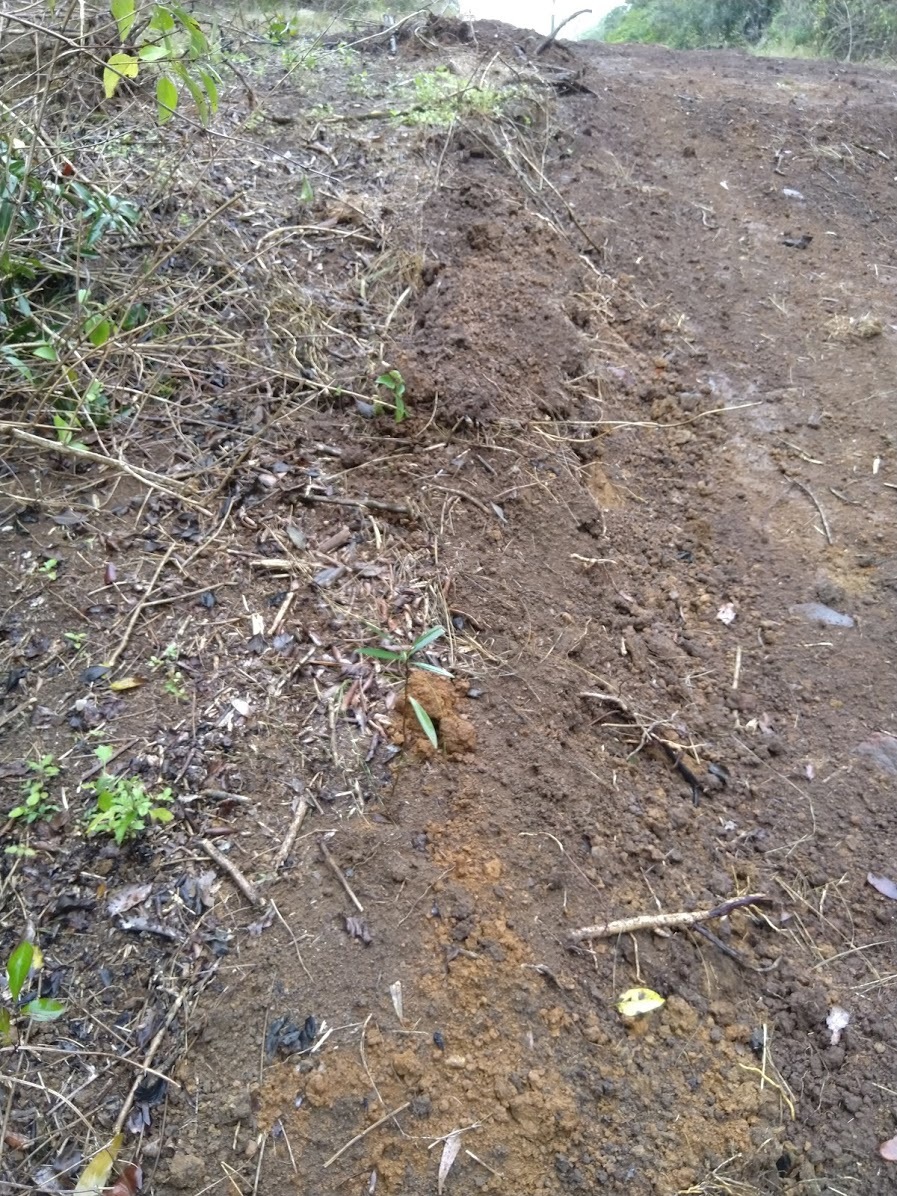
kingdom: Plantae
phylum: Tracheophyta
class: Magnoliopsida
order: Sapindales
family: Simaroubaceae
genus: Samadera
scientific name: Samadera bidwillii
